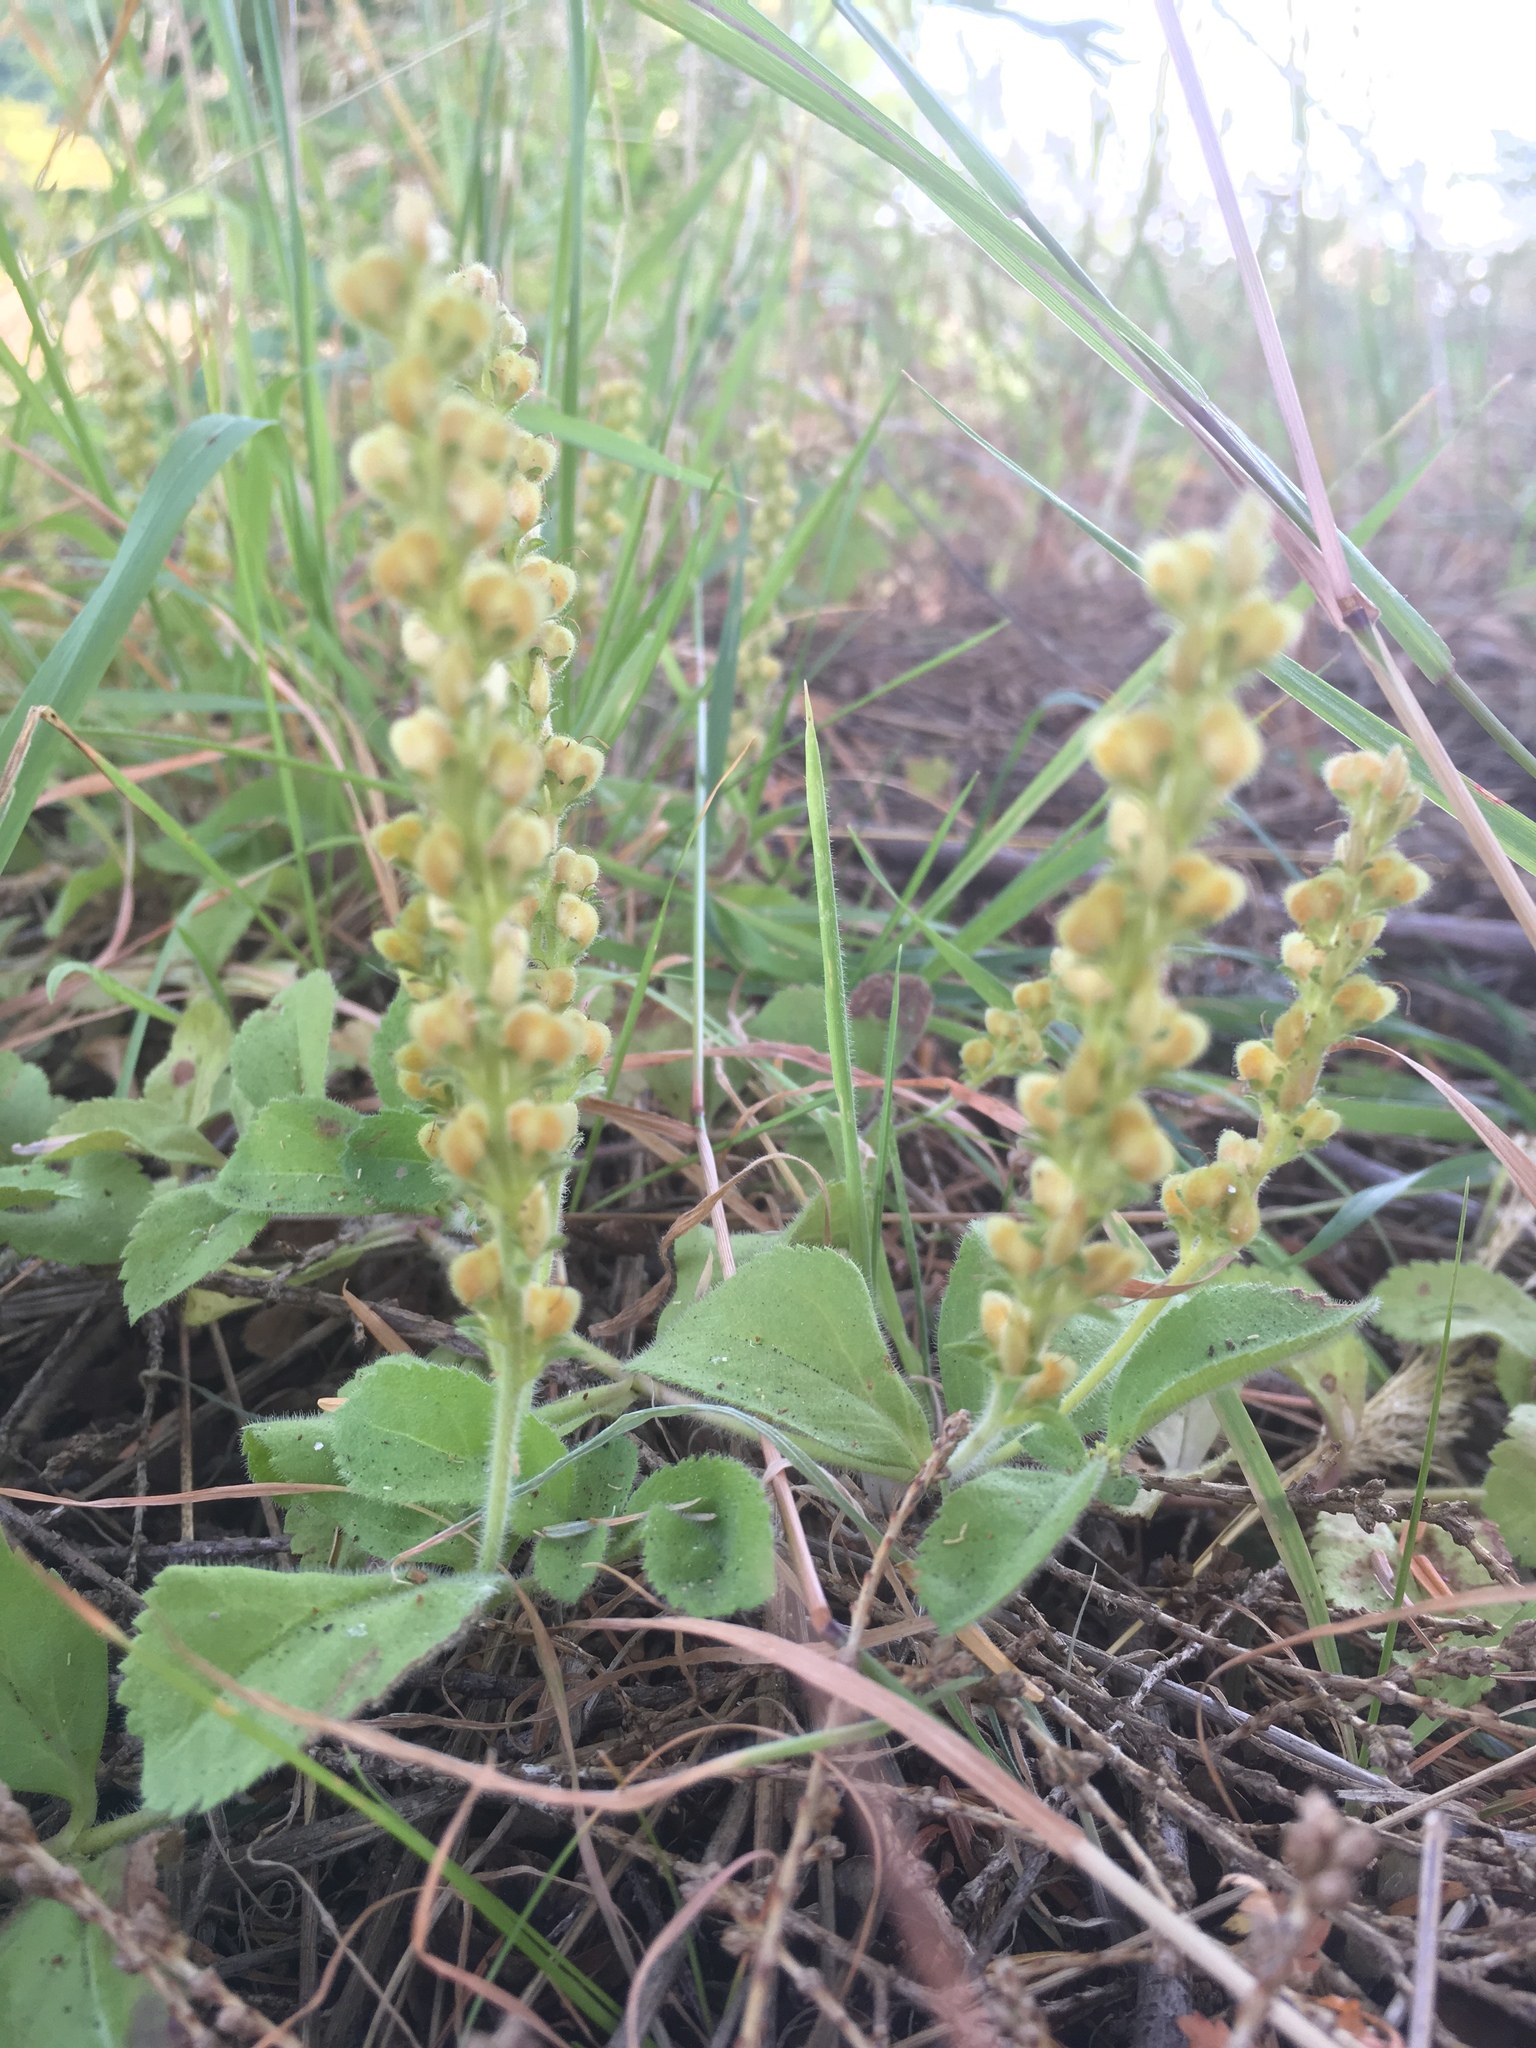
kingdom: Plantae
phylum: Tracheophyta
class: Magnoliopsida
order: Lamiales
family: Plantaginaceae
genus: Veronica
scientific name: Veronica officinalis
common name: Common speedwell
